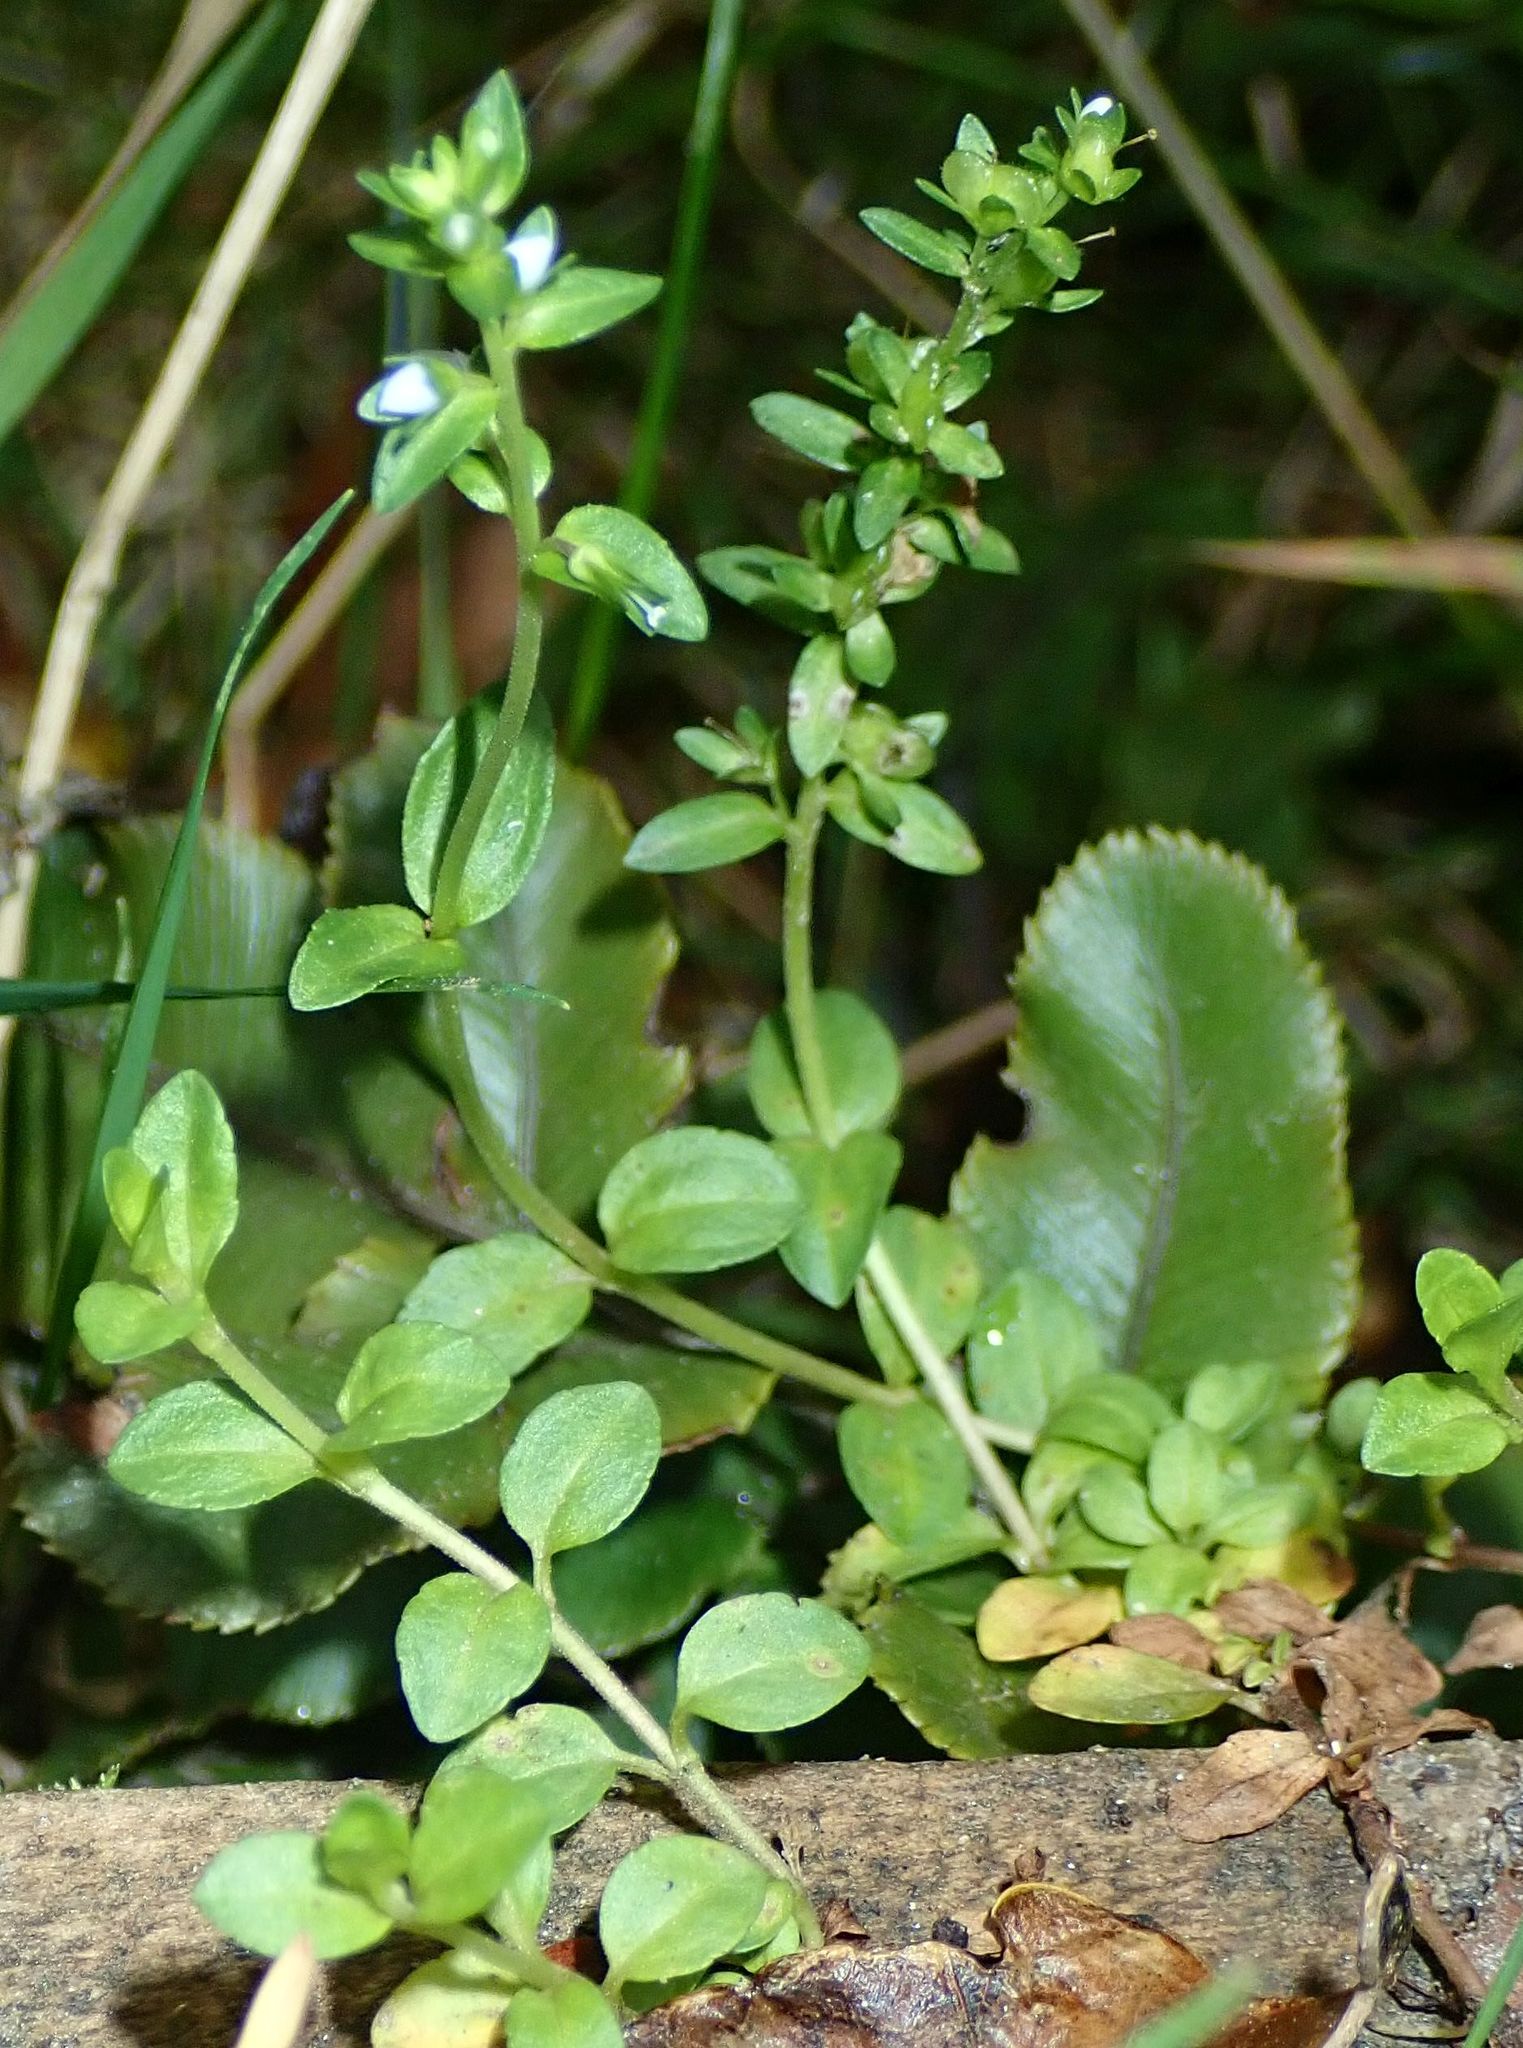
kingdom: Plantae
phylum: Tracheophyta
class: Magnoliopsida
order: Lamiales
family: Plantaginaceae
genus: Veronica
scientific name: Veronica serpyllifolia
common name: Thyme-leaved speedwell
